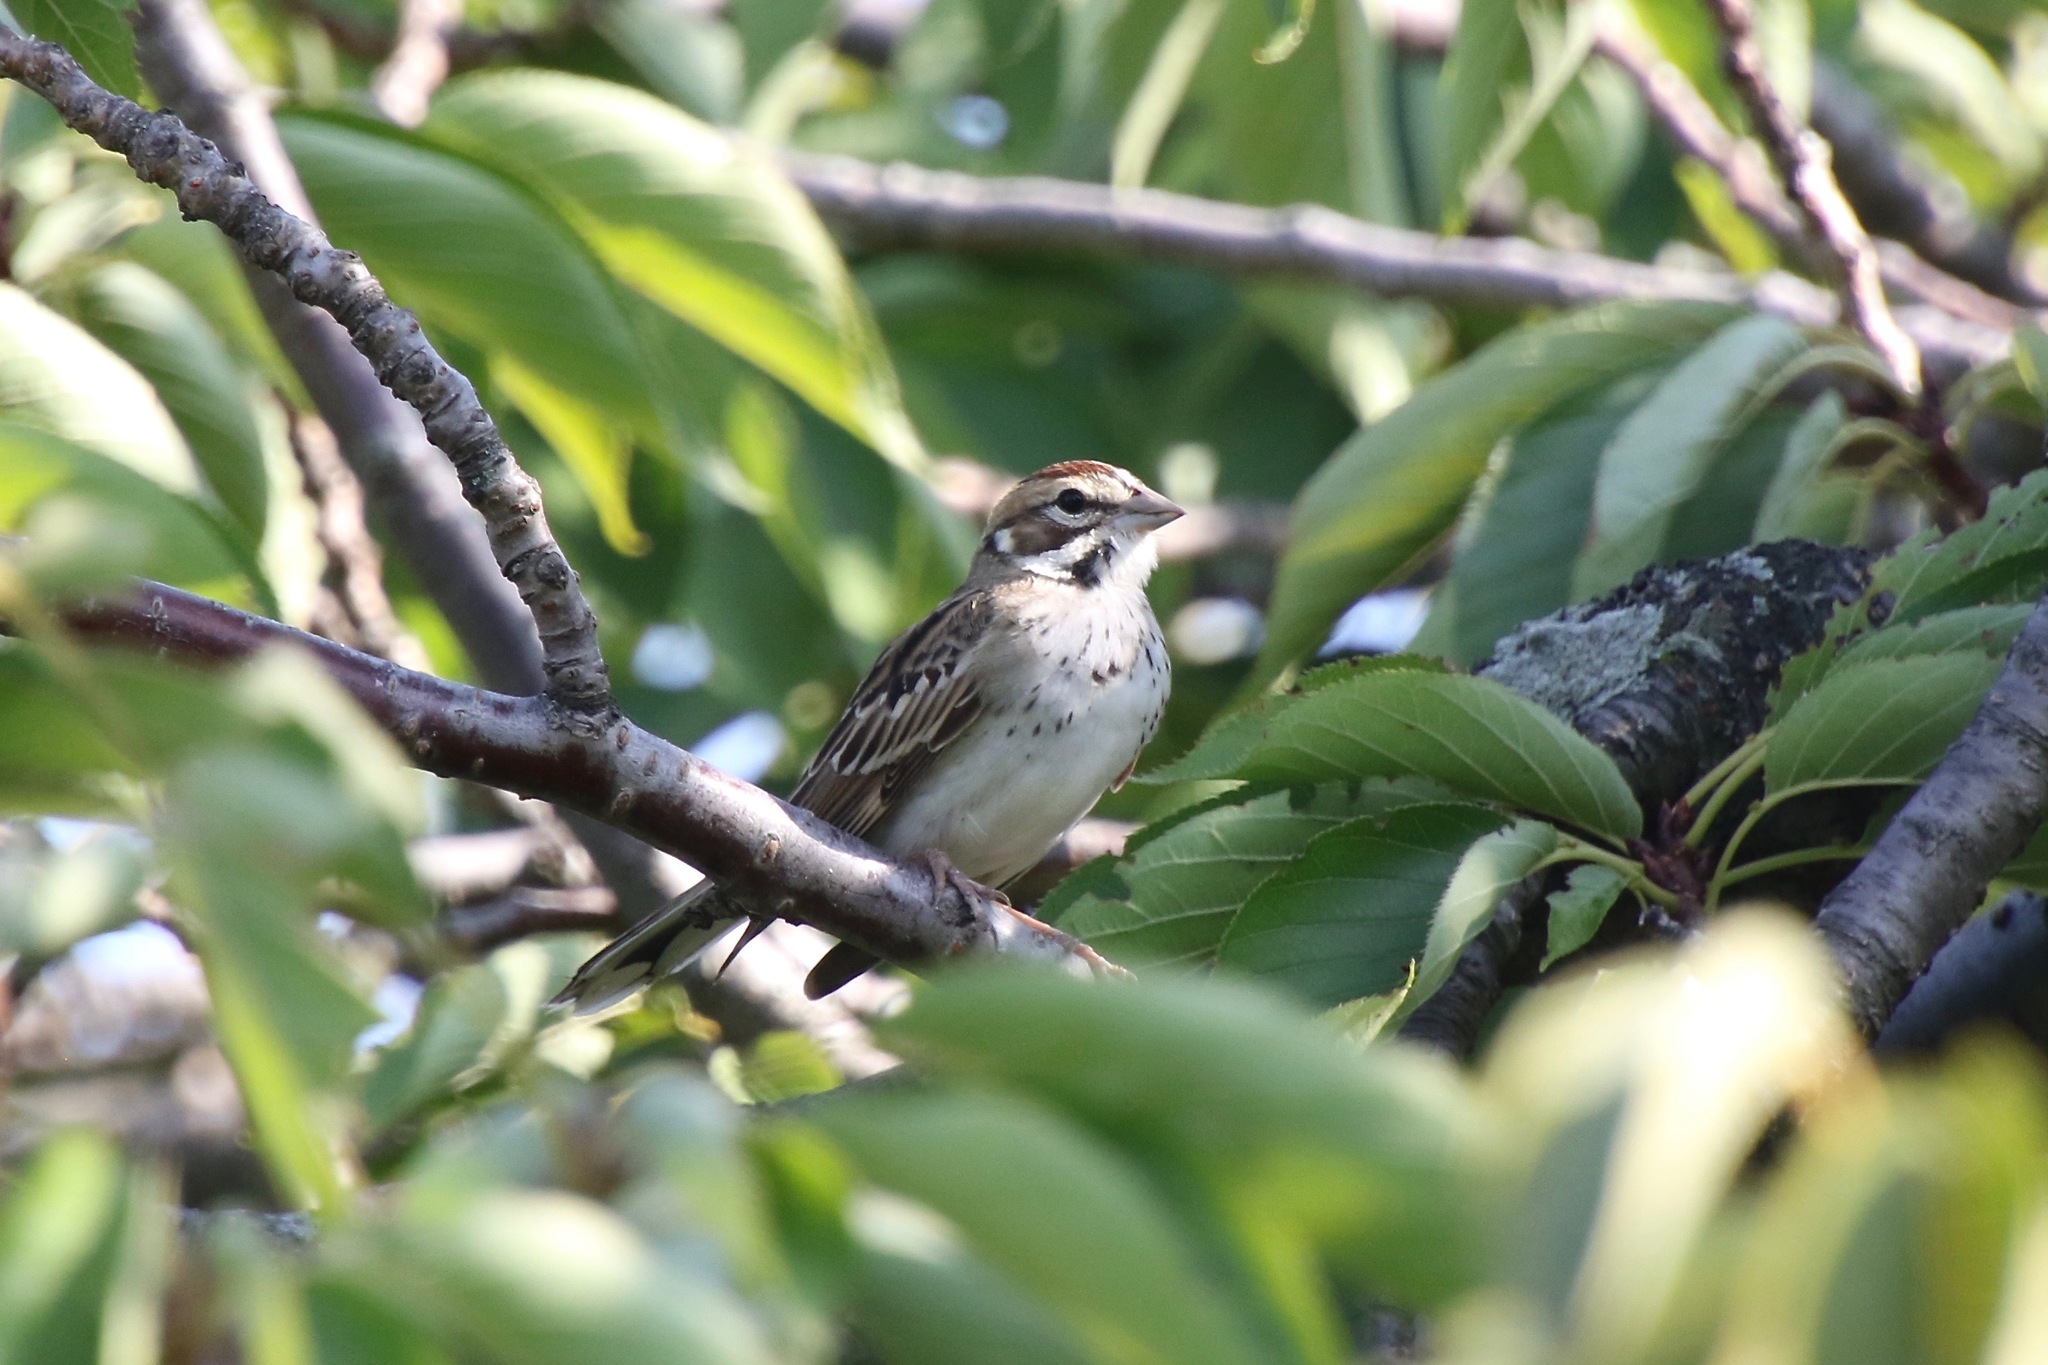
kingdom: Animalia
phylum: Chordata
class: Aves
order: Passeriformes
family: Passerellidae
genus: Chondestes
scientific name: Chondestes grammacus
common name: Lark sparrow
